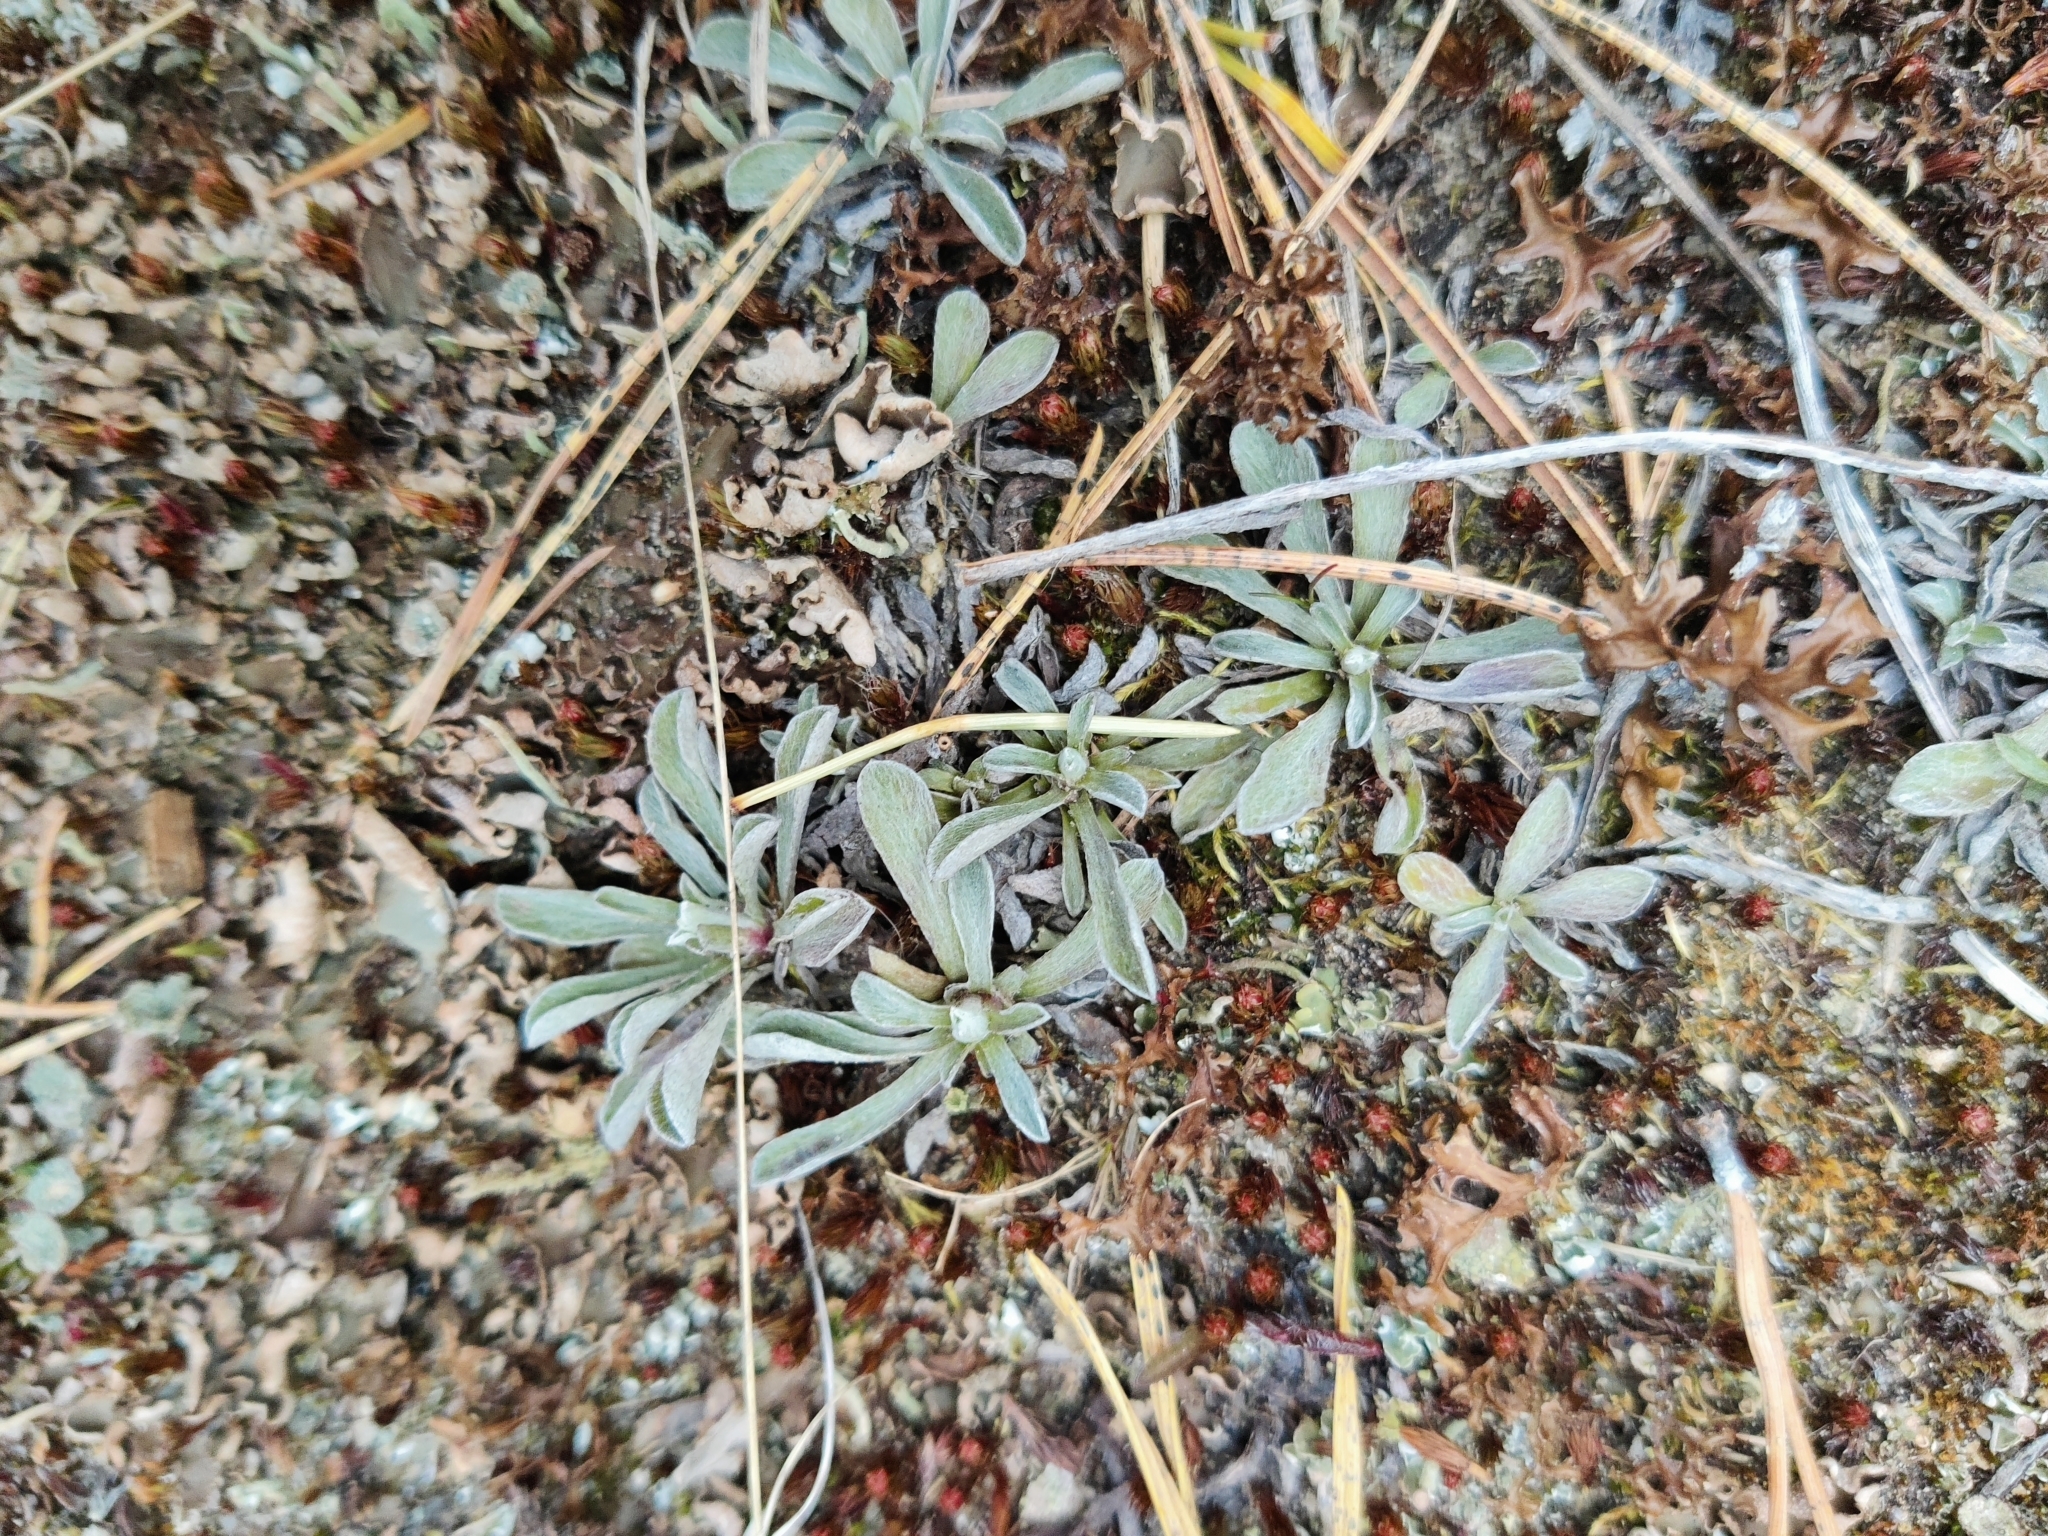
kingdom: Plantae
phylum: Tracheophyta
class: Magnoliopsida
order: Asterales
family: Asteraceae
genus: Antennaria
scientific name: Antennaria dioica
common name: Mountain everlasting
